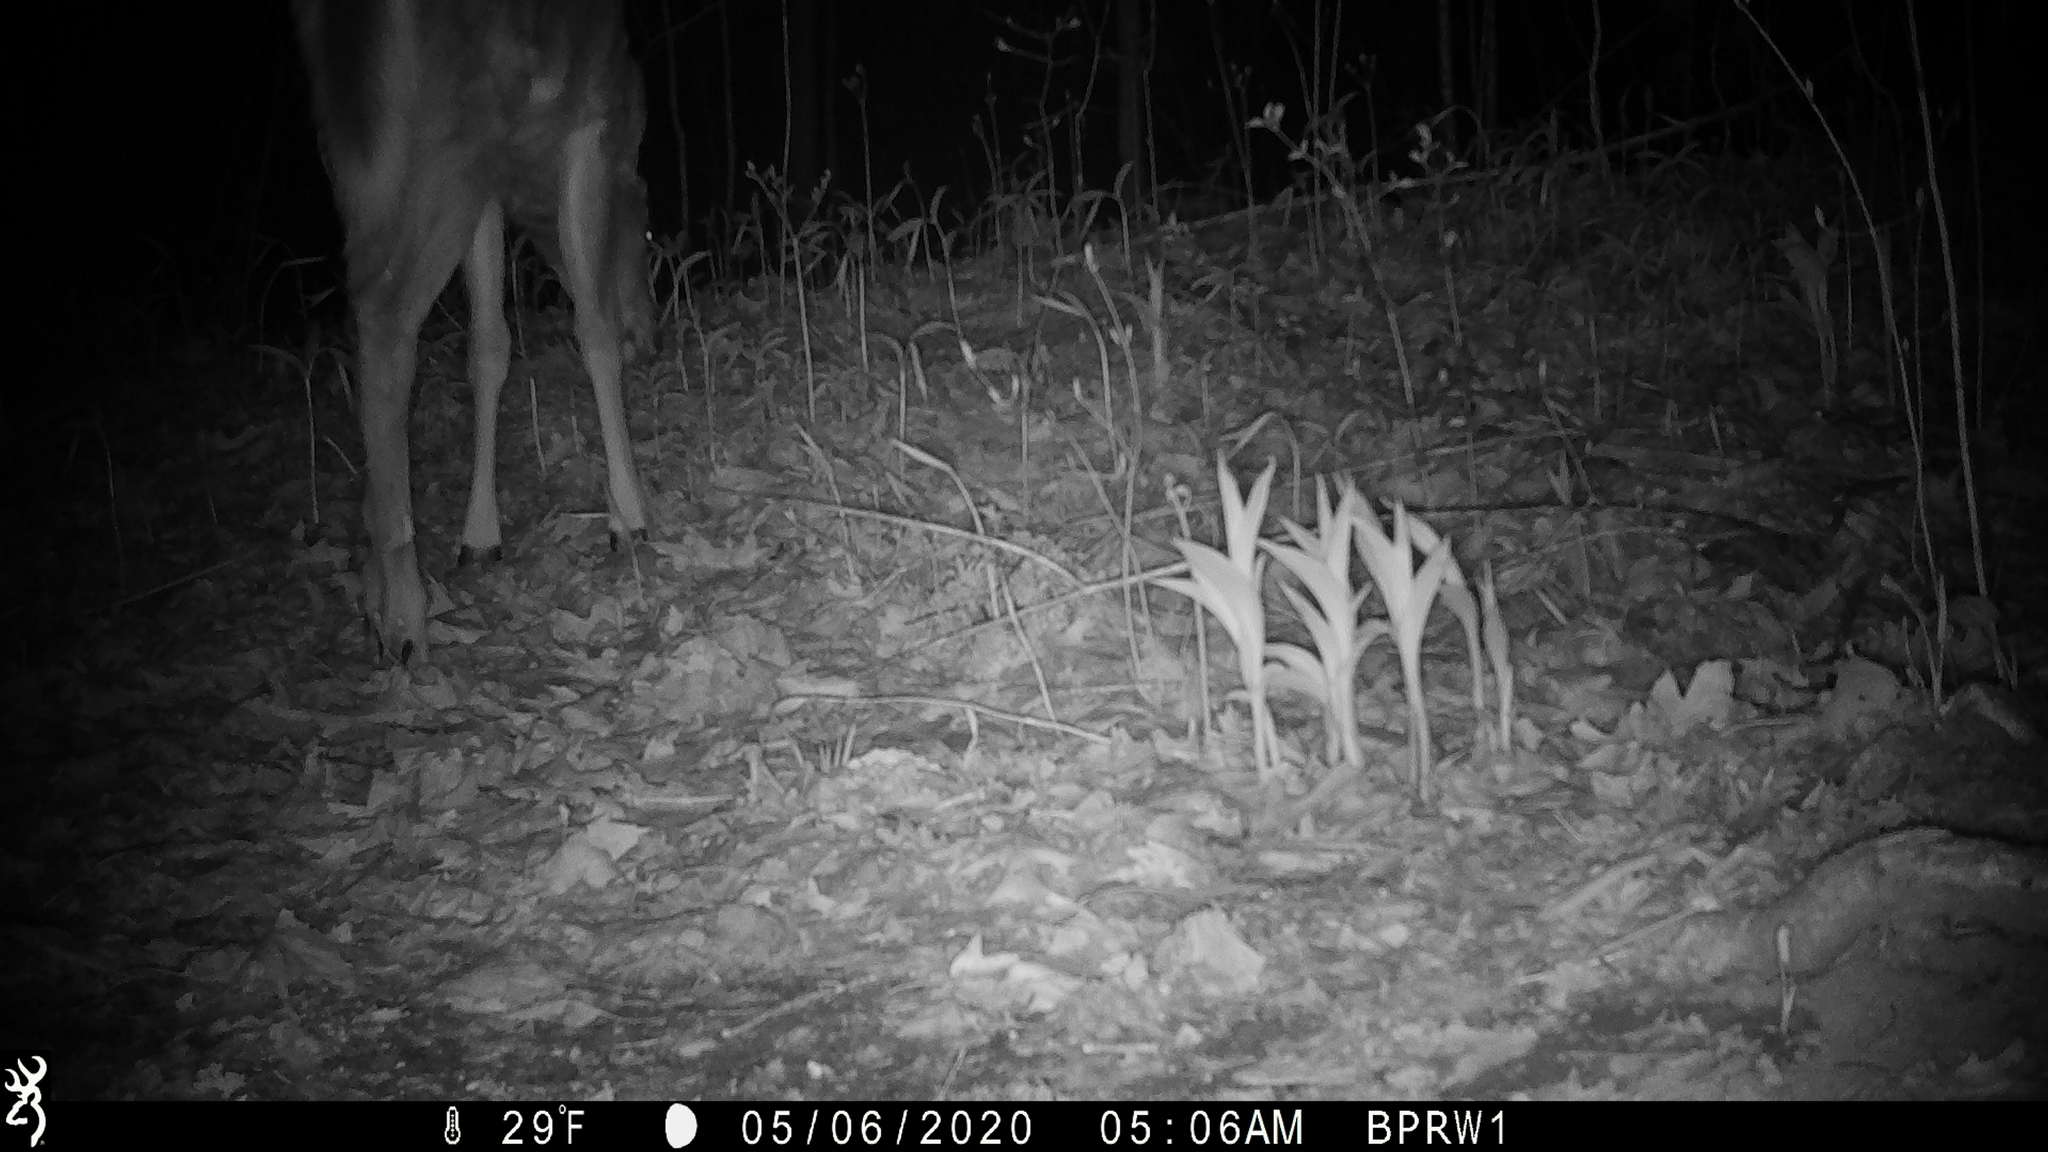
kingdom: Animalia
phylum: Chordata
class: Mammalia
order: Artiodactyla
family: Cervidae
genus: Odocoileus
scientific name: Odocoileus virginianus
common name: White-tailed deer
